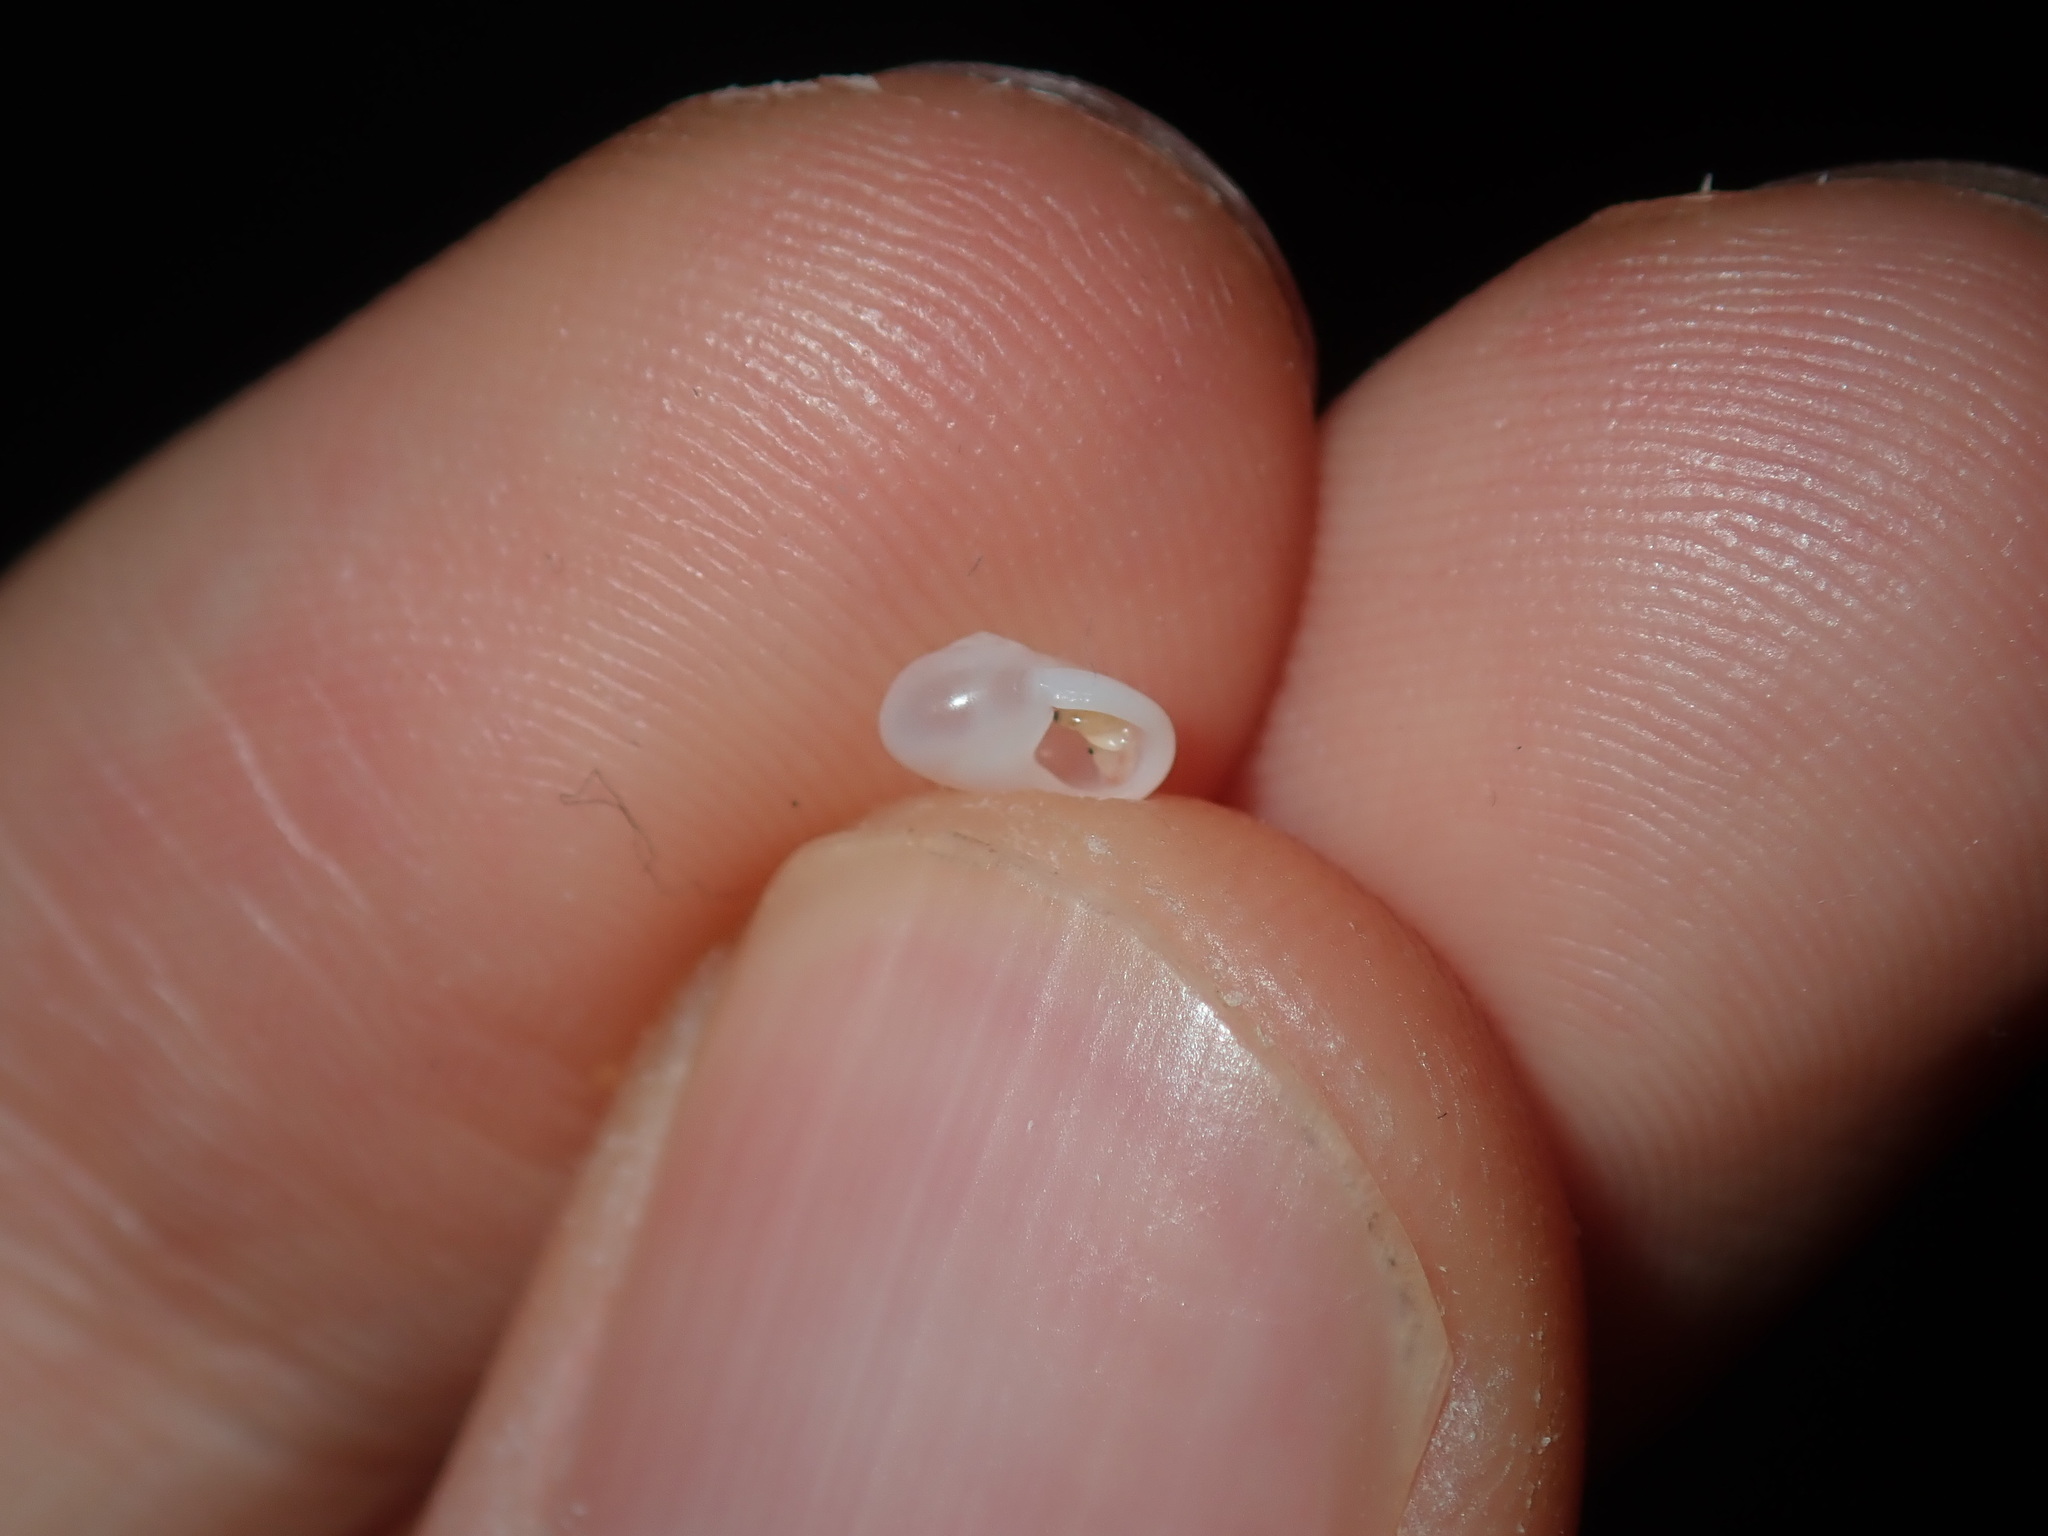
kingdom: Animalia
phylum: Mollusca
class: Gastropoda
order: Littorinimorpha
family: Teinostomatidae
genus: Teinostoma
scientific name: Teinostoma lucidum
